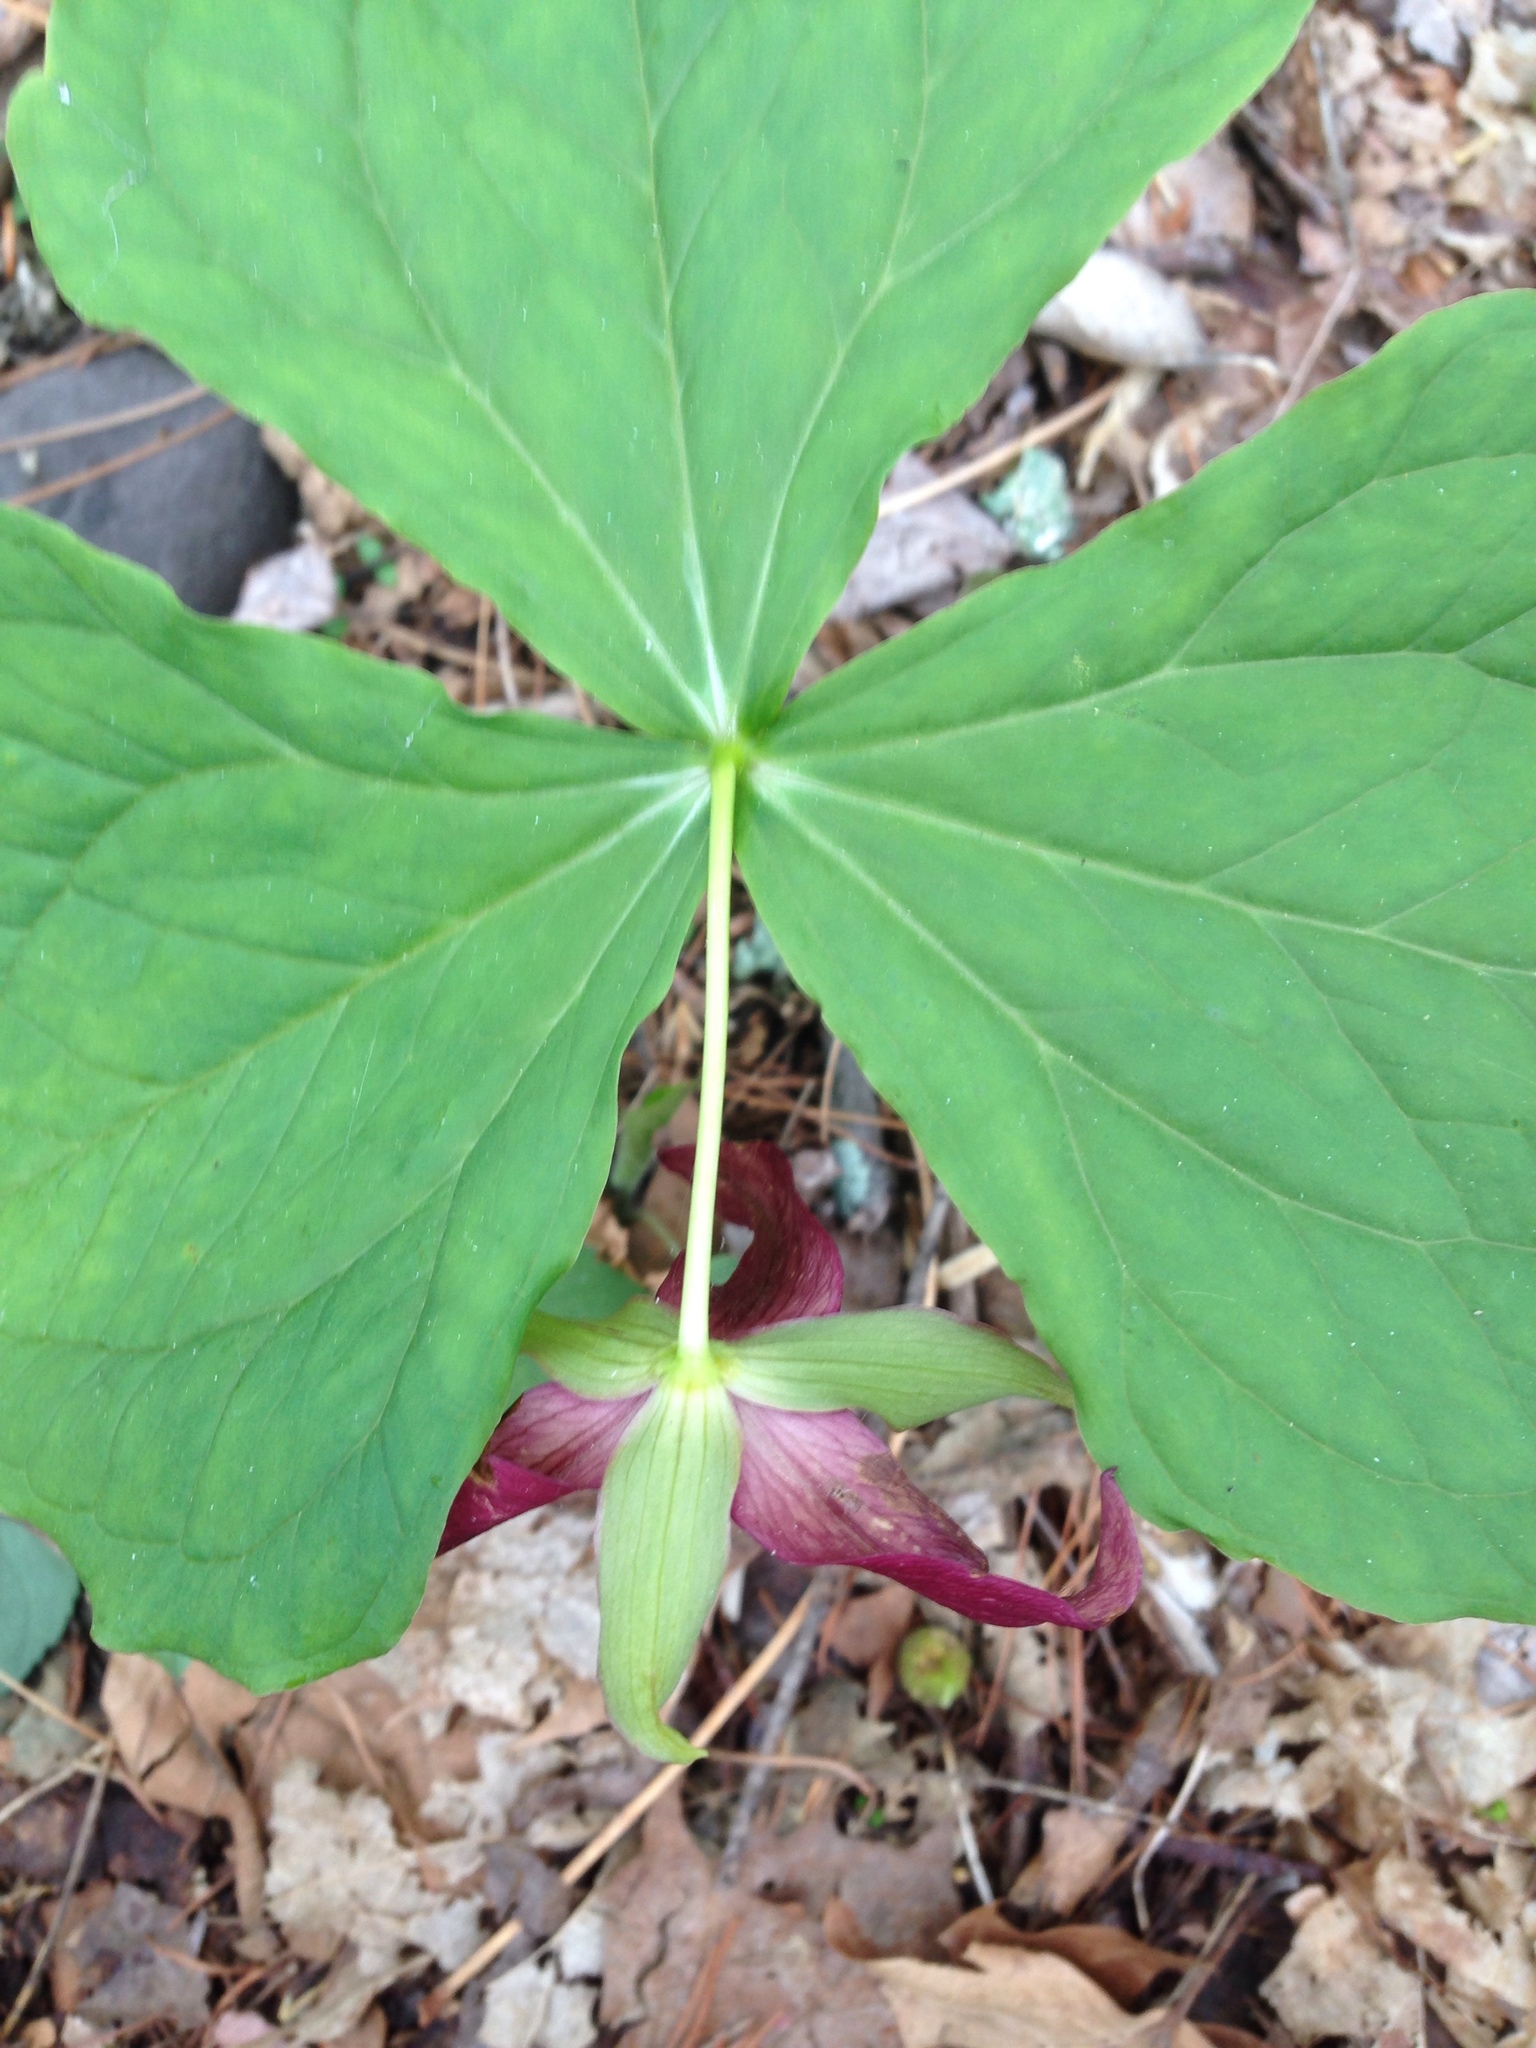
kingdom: Plantae
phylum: Tracheophyta
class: Liliopsida
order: Liliales
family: Melanthiaceae
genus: Trillium
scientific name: Trillium erectum
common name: Purple trillium
